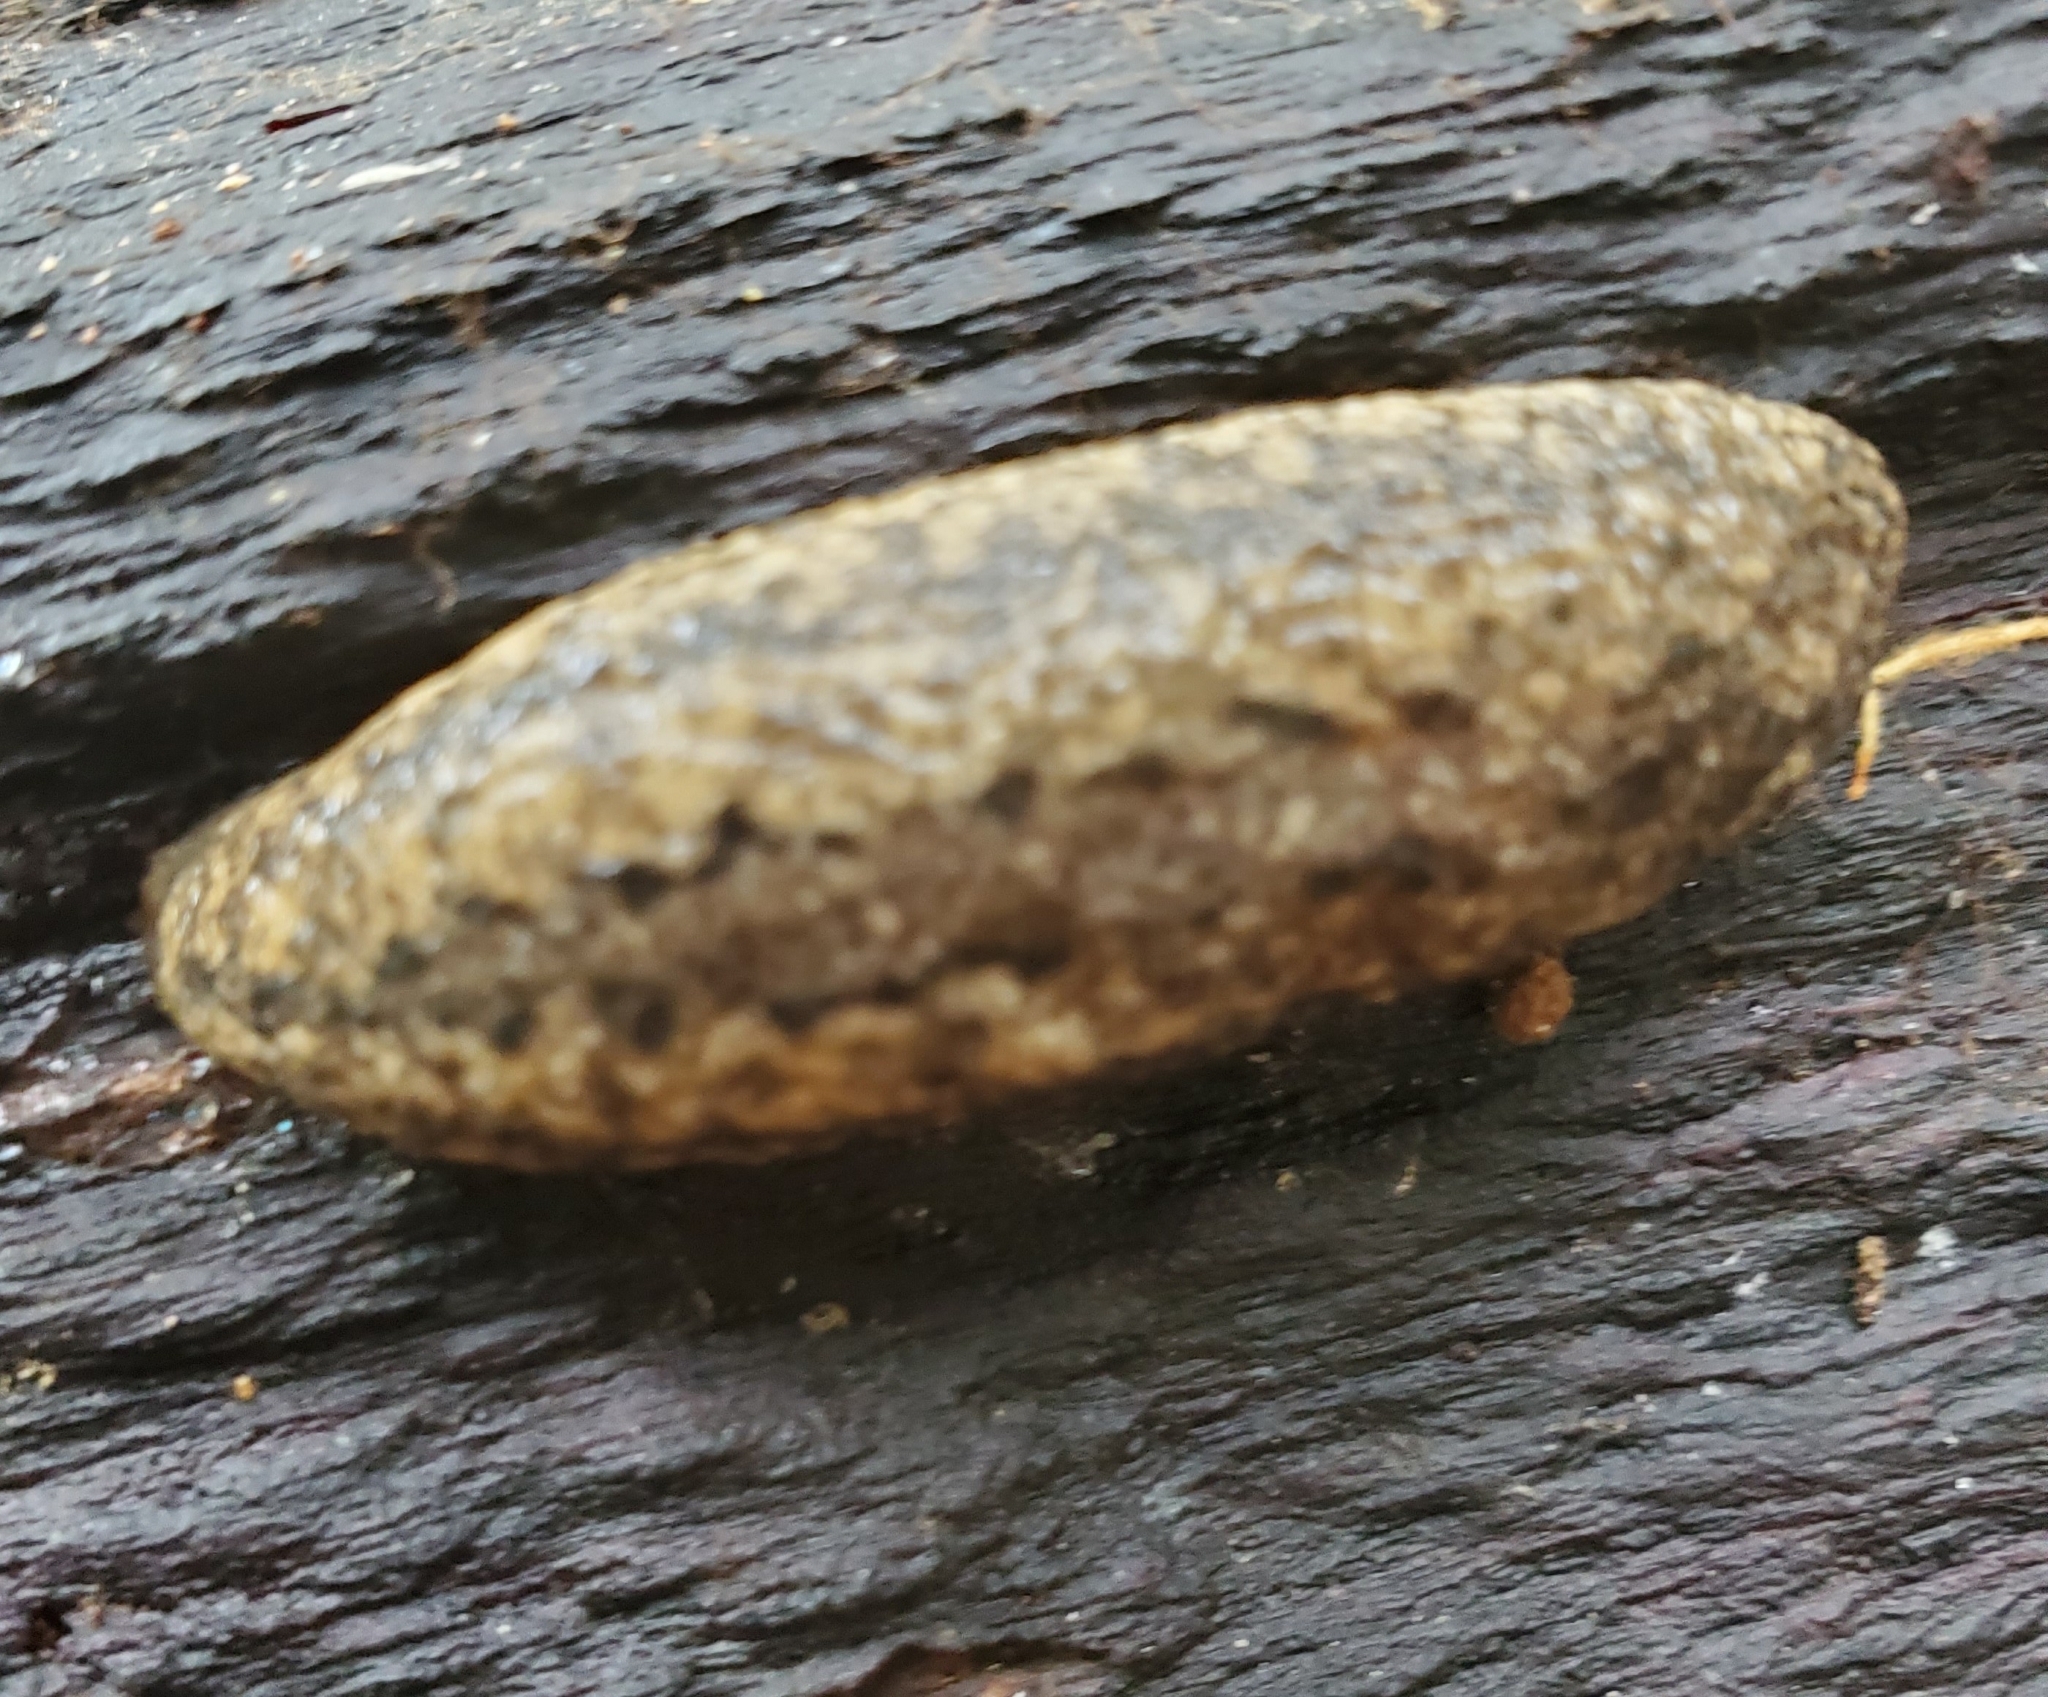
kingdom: Animalia
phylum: Mollusca
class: Gastropoda
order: Stylommatophora
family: Philomycidae
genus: Philomycus
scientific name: Philomycus carolinianus
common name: Carolina mantleslug
